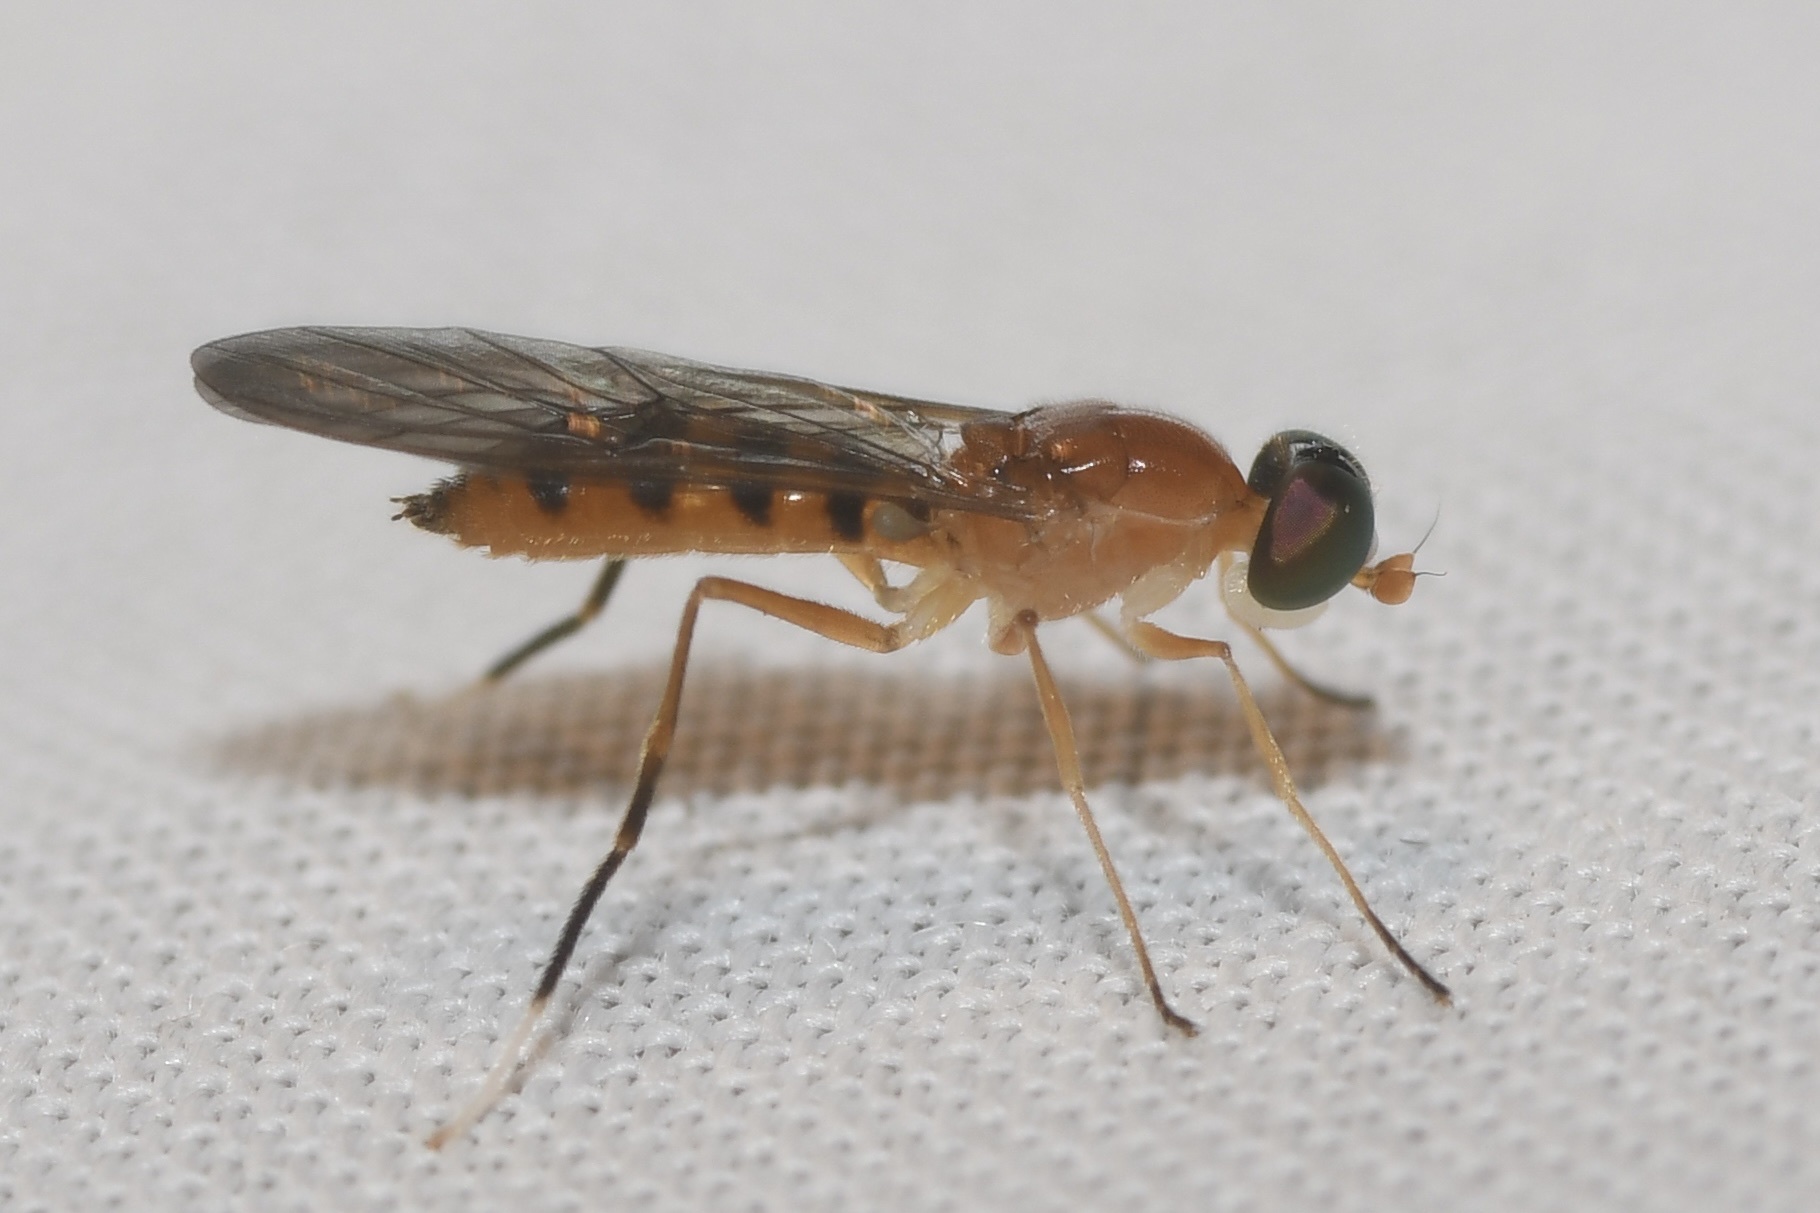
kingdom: Animalia
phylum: Arthropoda
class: Insecta
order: Diptera
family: Stratiomyidae
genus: Ptecticus
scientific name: Ptecticus sackenii
